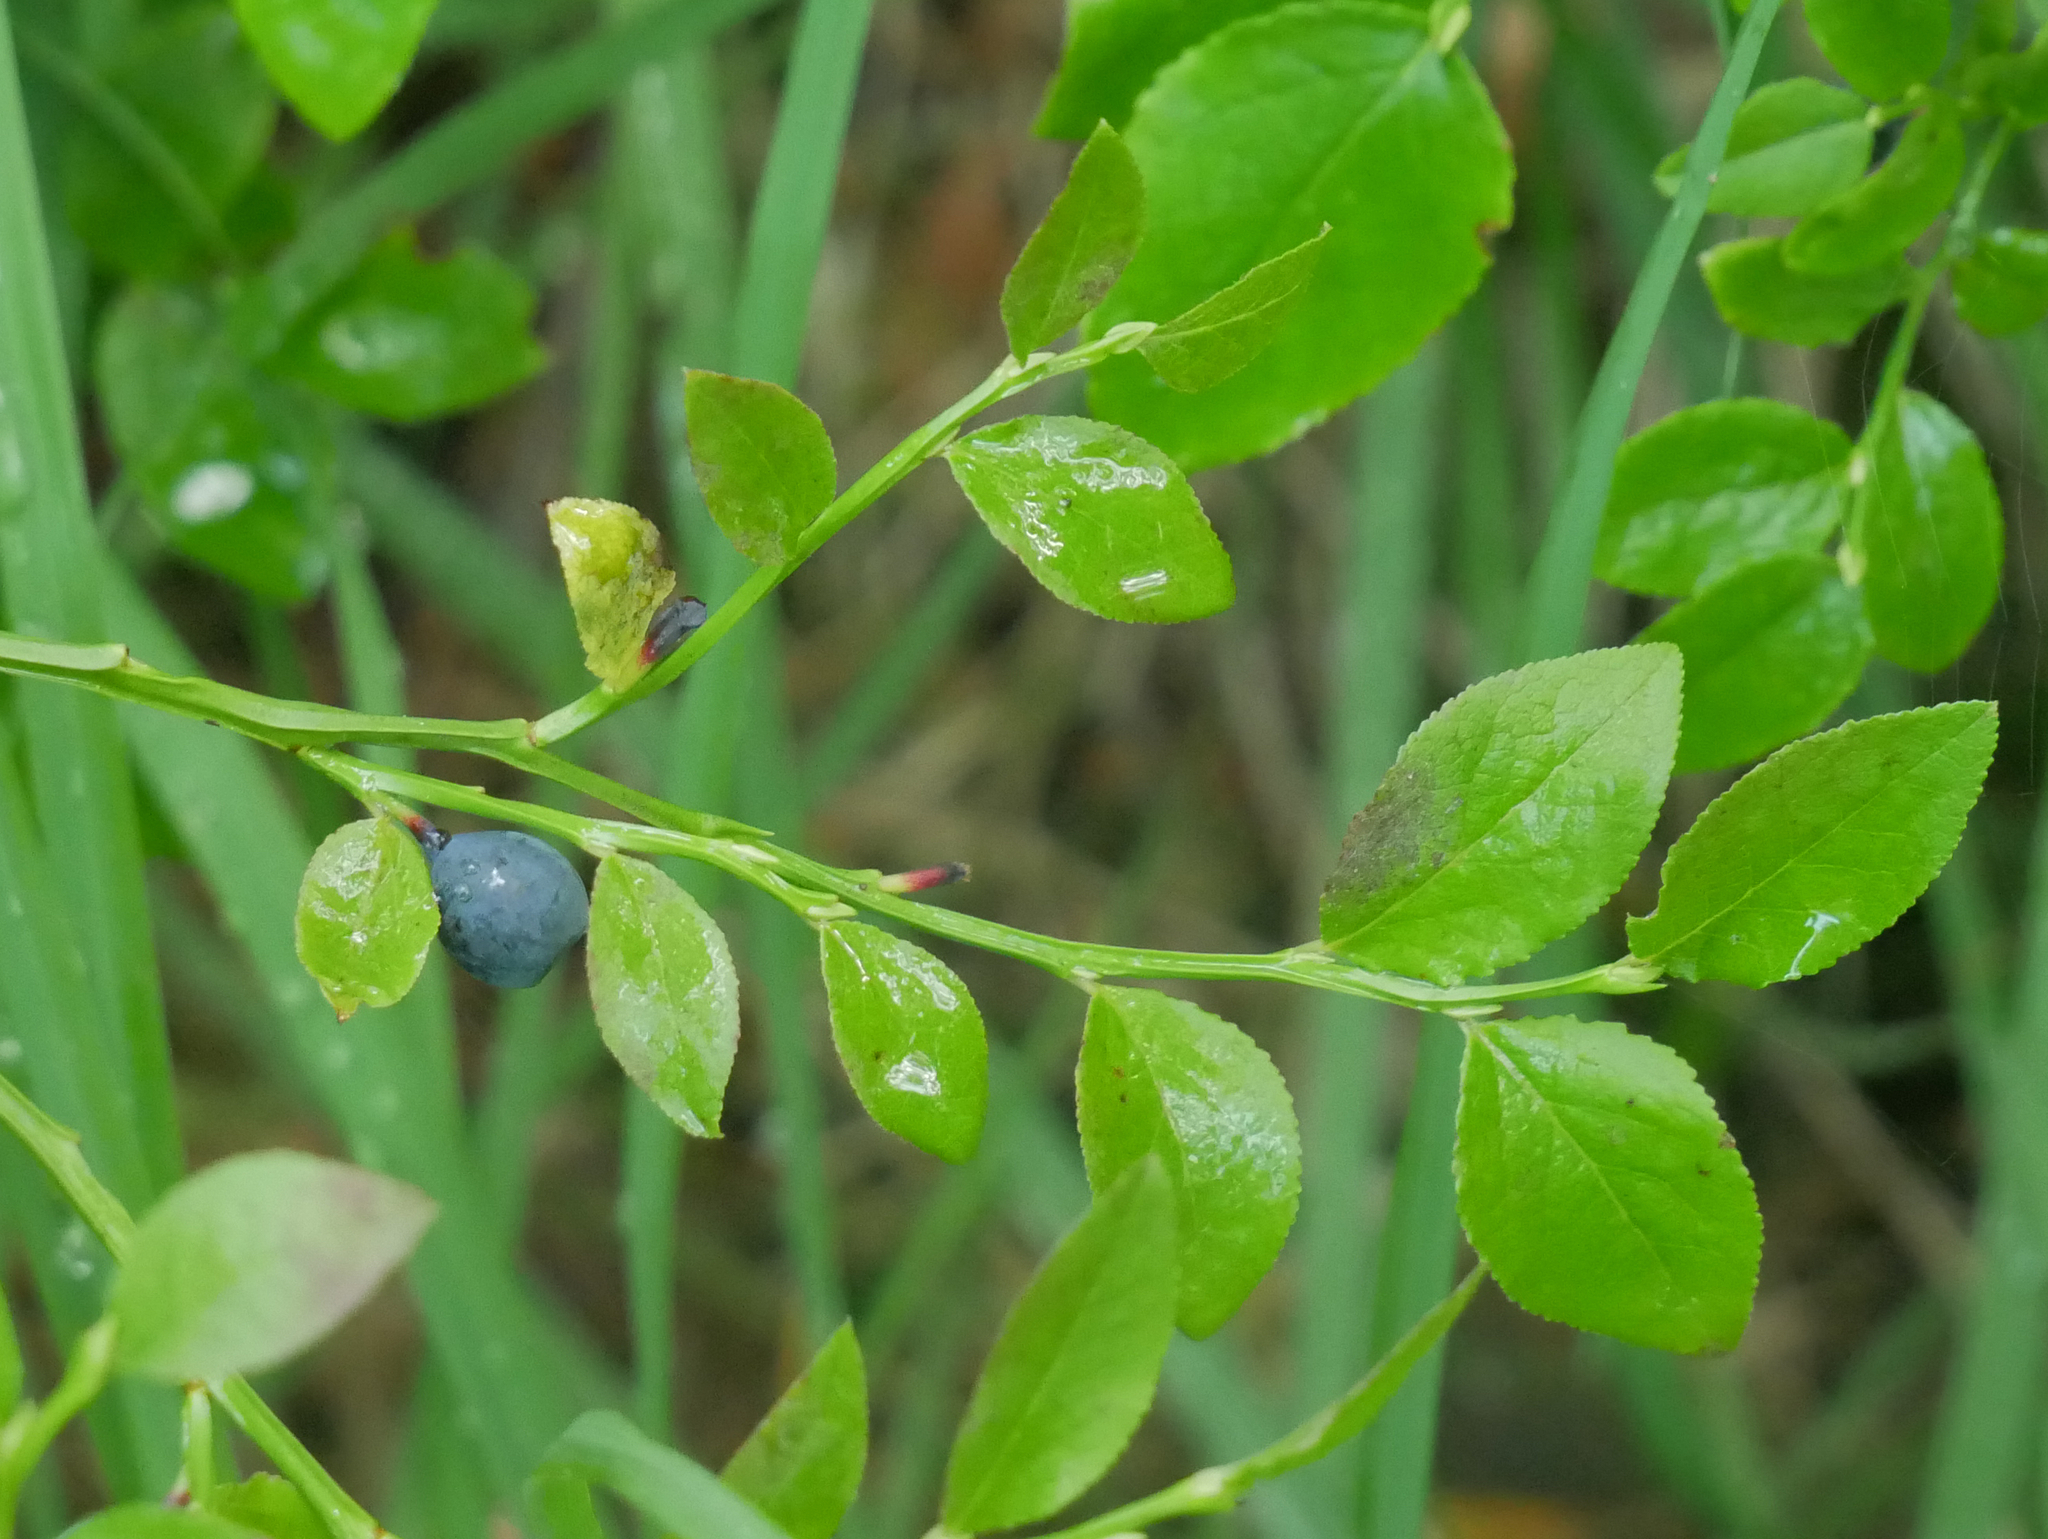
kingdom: Plantae
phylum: Tracheophyta
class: Magnoliopsida
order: Ericales
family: Ericaceae
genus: Vaccinium
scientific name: Vaccinium myrtillus
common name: Bilberry
